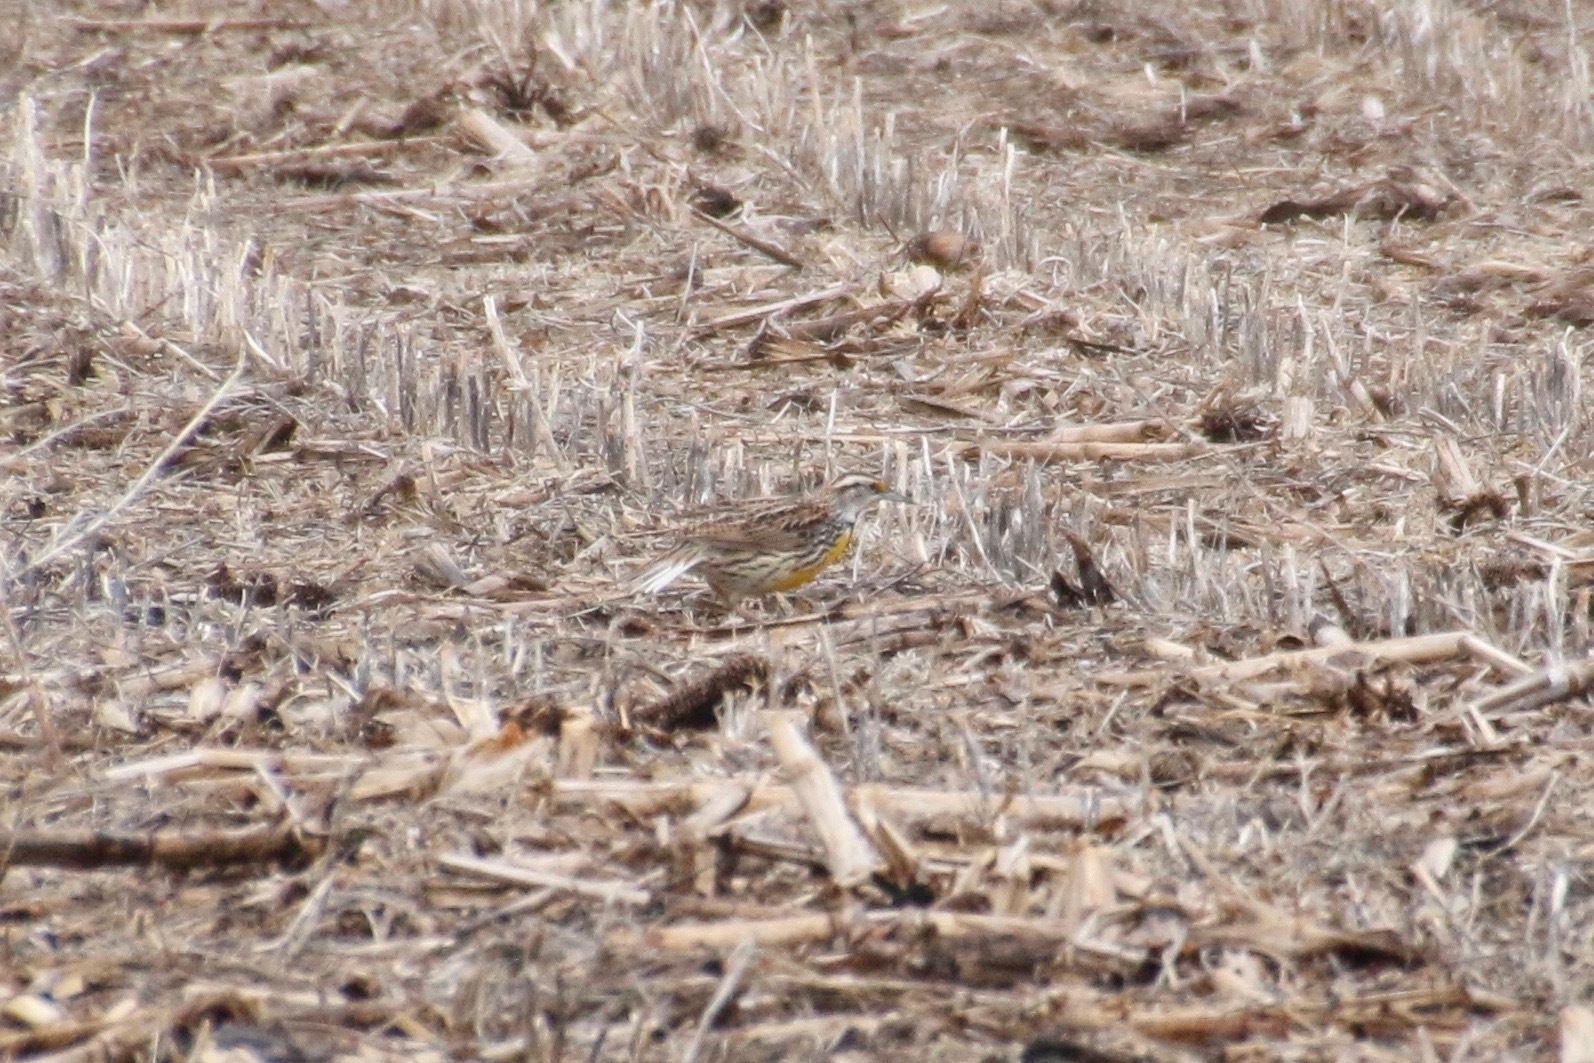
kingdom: Animalia
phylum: Chordata
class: Aves
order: Passeriformes
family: Icteridae
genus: Sturnella
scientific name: Sturnella magna
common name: Eastern meadowlark
